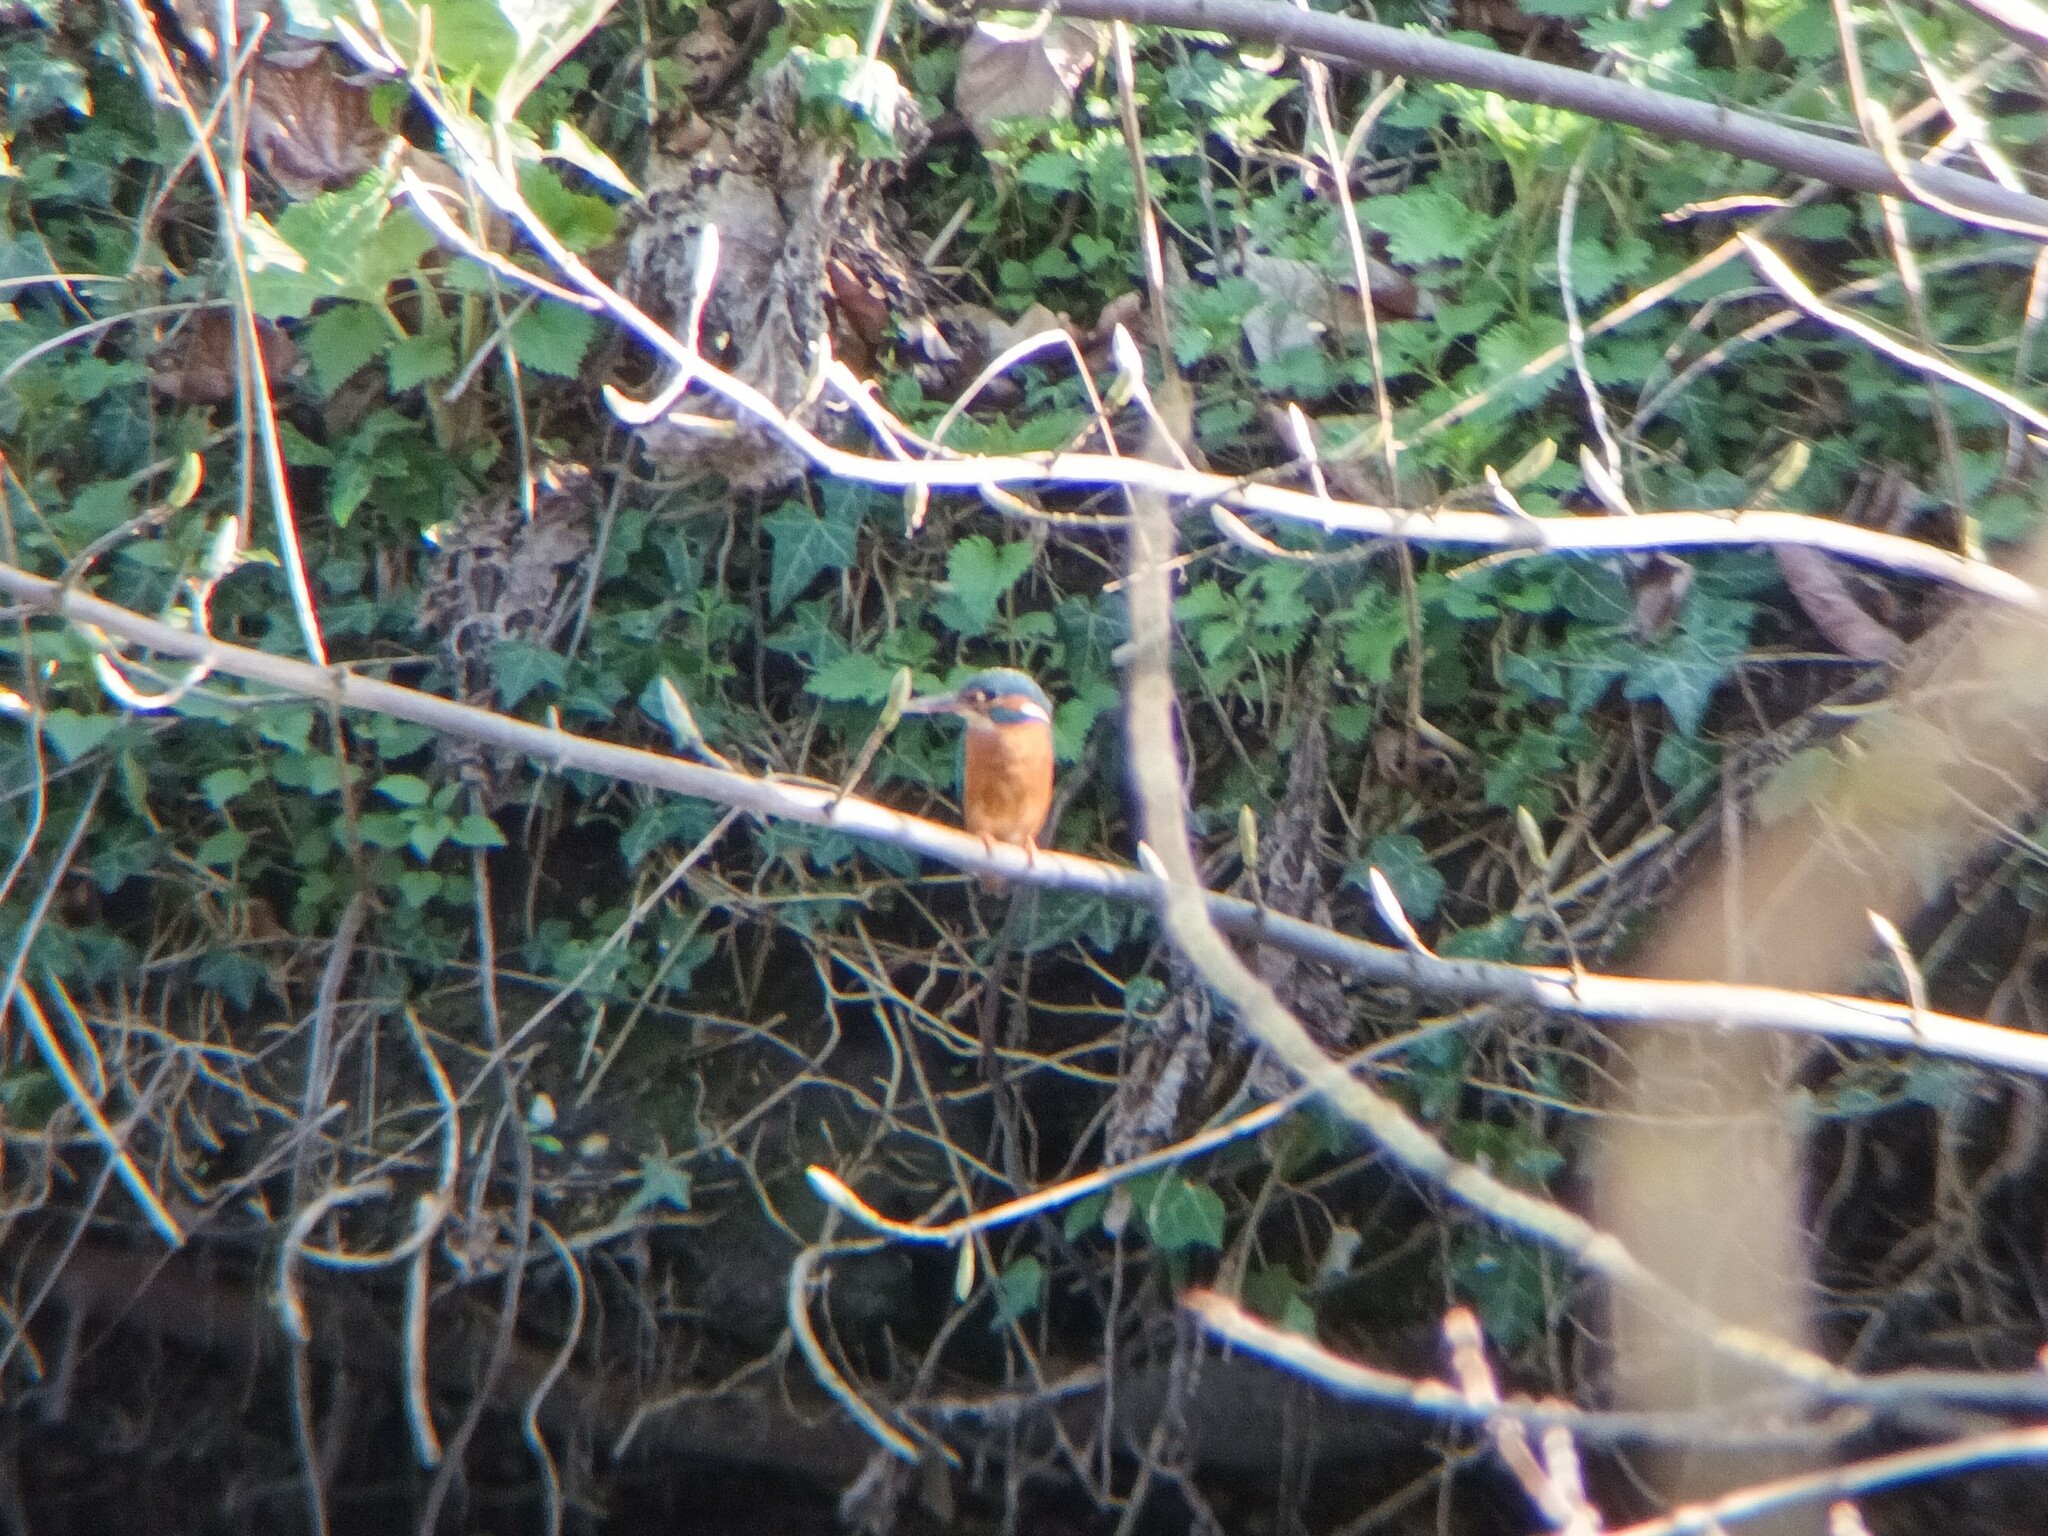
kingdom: Animalia
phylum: Chordata
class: Aves
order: Coraciiformes
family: Alcedinidae
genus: Alcedo
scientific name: Alcedo atthis
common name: Common kingfisher
